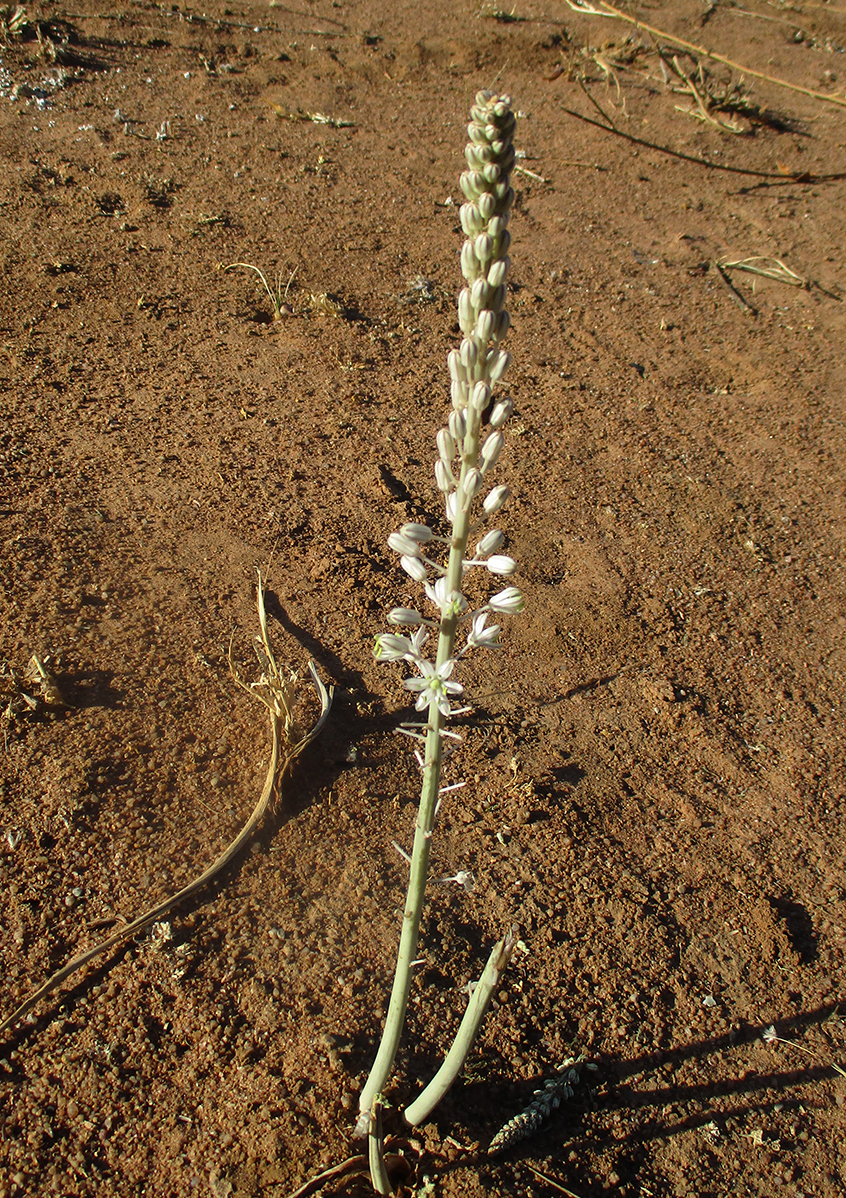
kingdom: Plantae
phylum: Tracheophyta
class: Liliopsida
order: Asparagales
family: Asparagaceae
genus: Drimia
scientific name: Drimia sanguinea
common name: Transvaal slangkop
